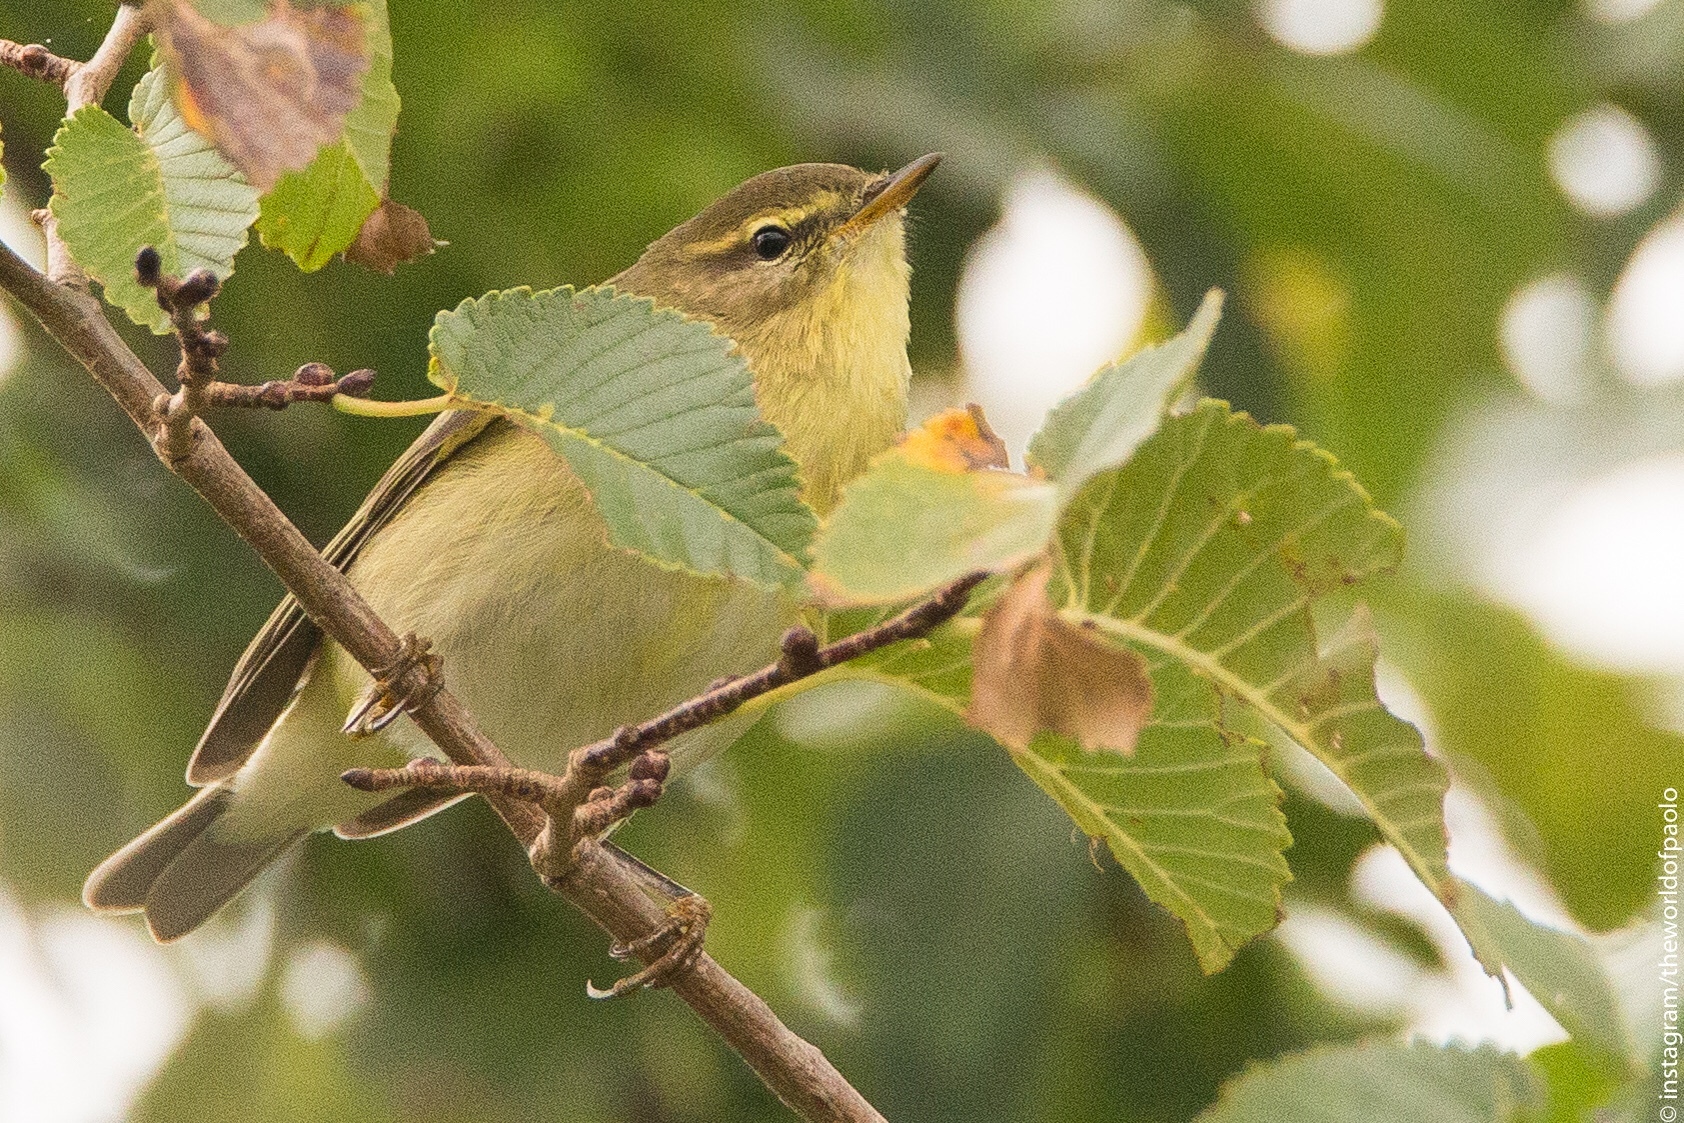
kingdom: Animalia
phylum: Chordata
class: Aves
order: Passeriformes
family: Phylloscopidae
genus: Phylloscopus
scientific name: Phylloscopus trochilus
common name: Willow warbler
